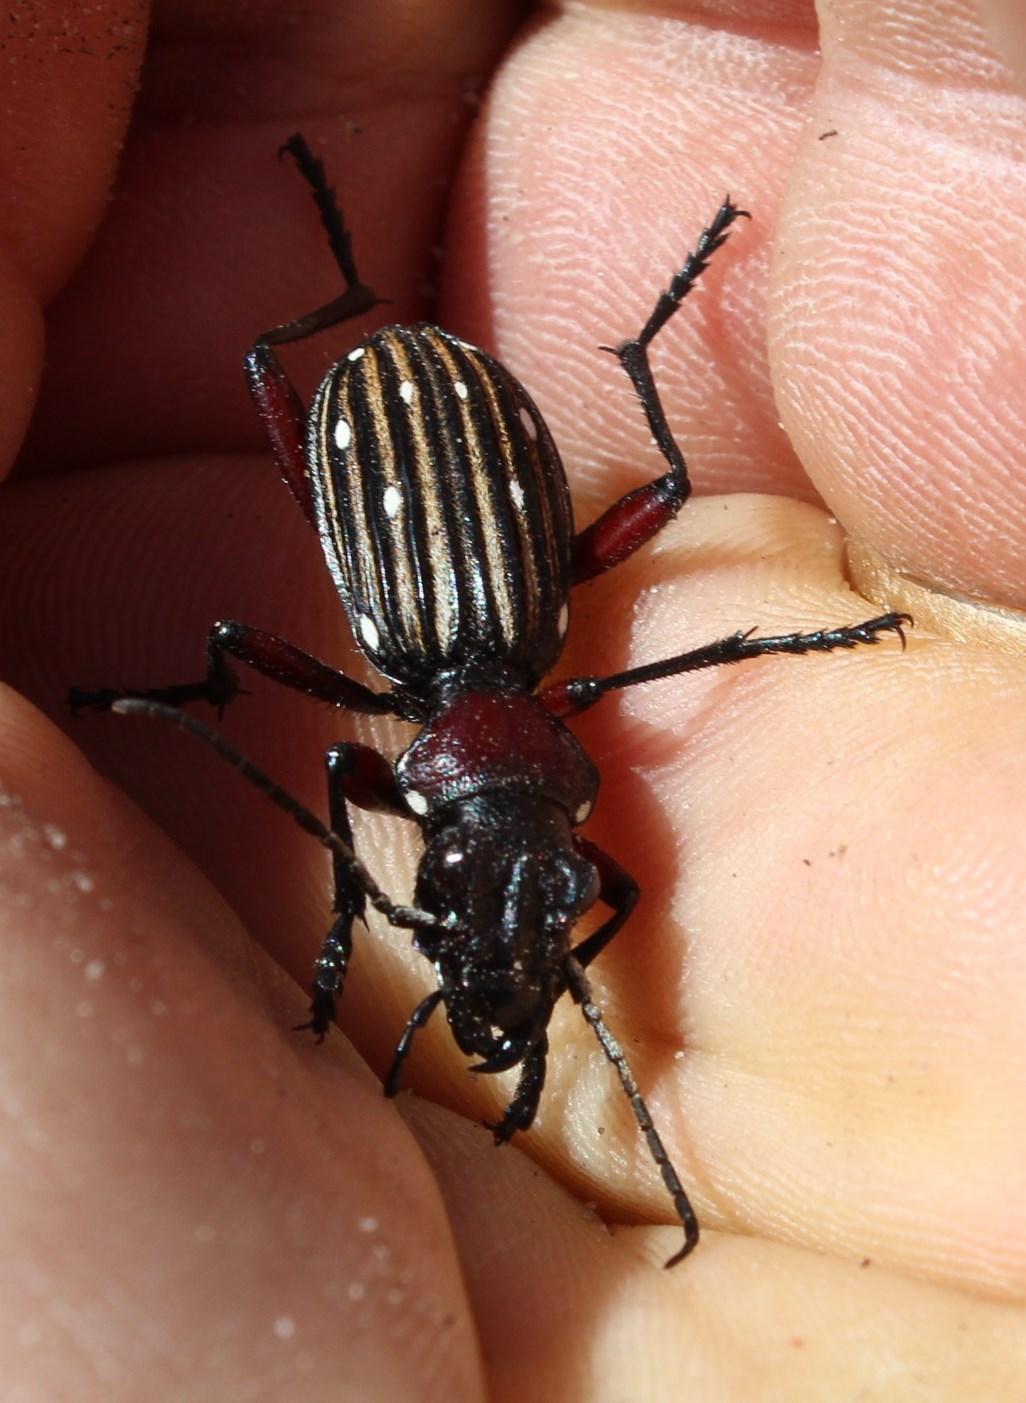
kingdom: Animalia
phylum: Arthropoda
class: Insecta
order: Coleoptera
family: Carabidae
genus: Anthia
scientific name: Anthia decemguttata
